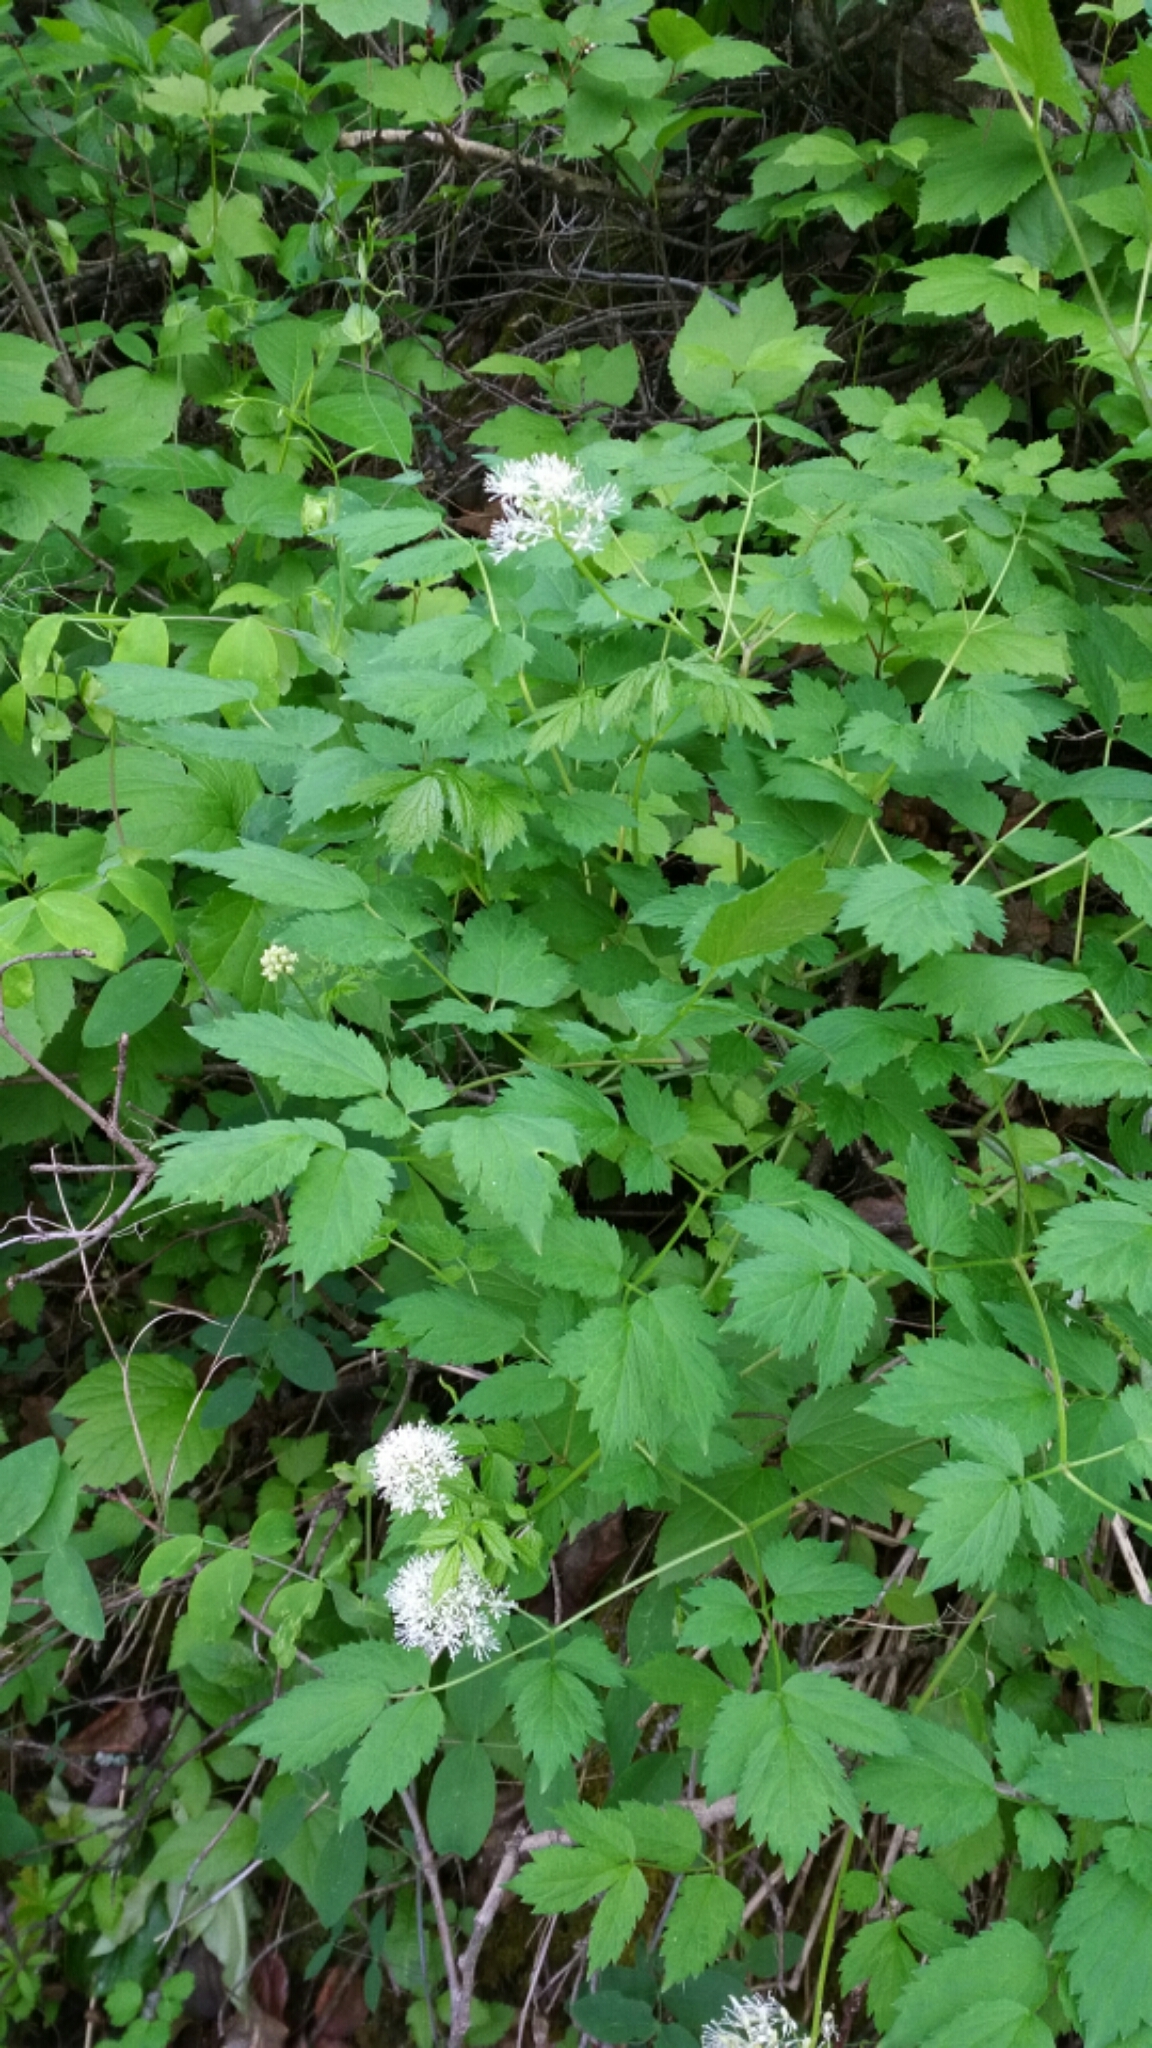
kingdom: Plantae
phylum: Tracheophyta
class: Magnoliopsida
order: Ranunculales
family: Ranunculaceae
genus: Actaea
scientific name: Actaea rubra
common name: Red baneberry
